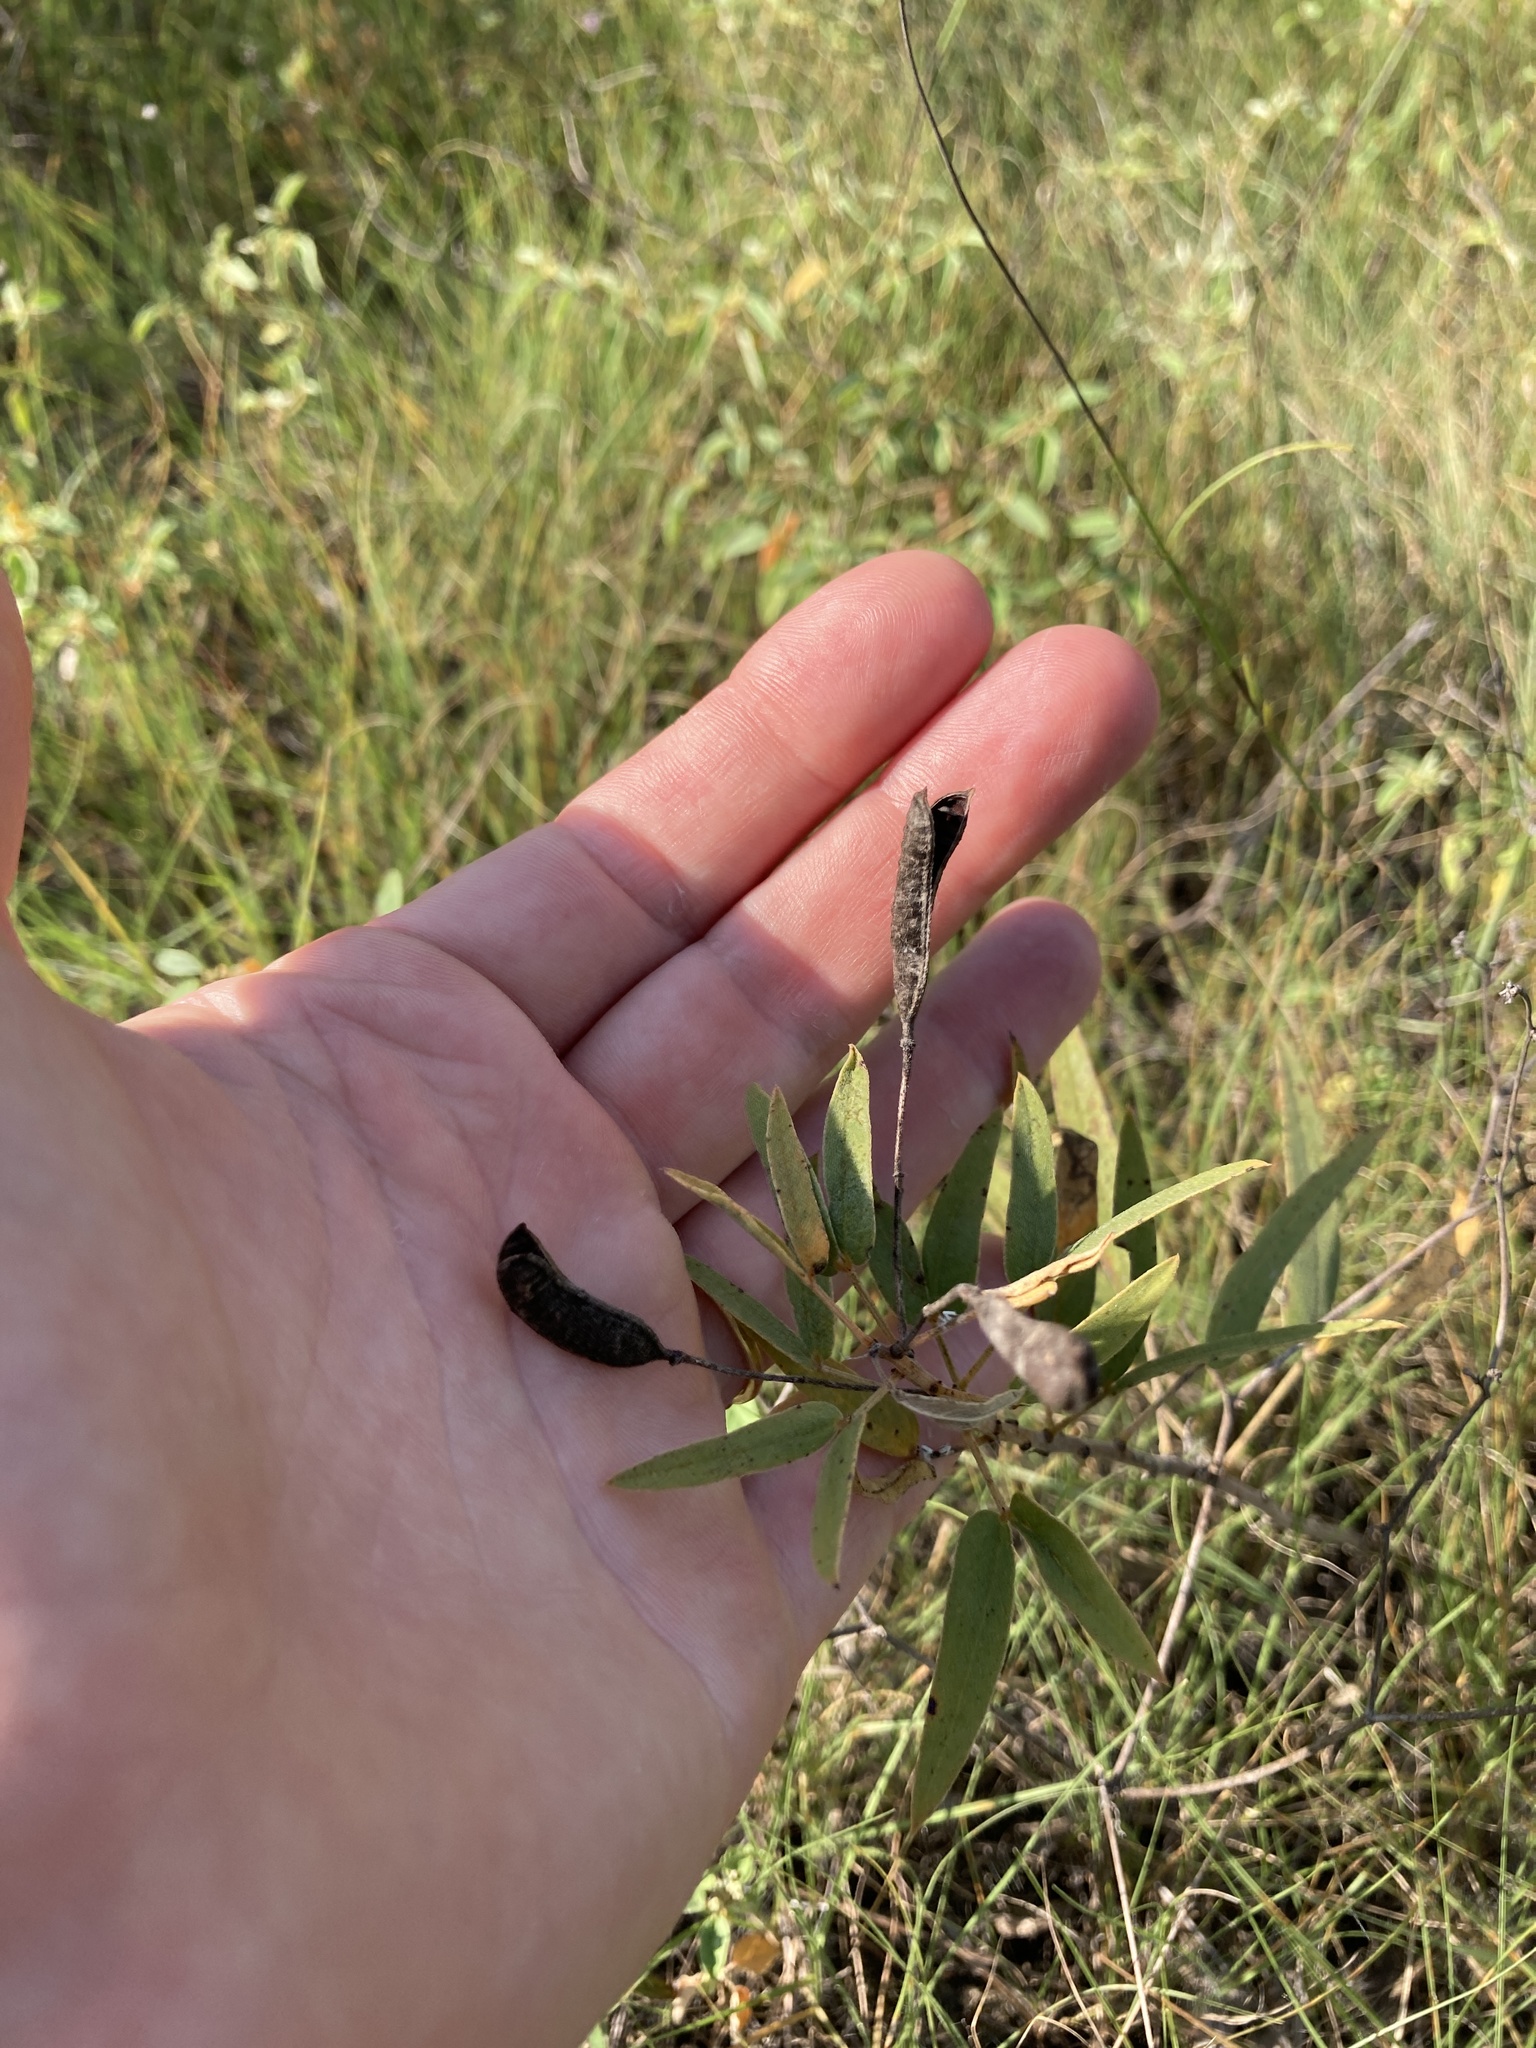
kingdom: Plantae
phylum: Tracheophyta
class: Magnoliopsida
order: Fabales
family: Fabaceae
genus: Senna
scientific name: Senna roemeriana
